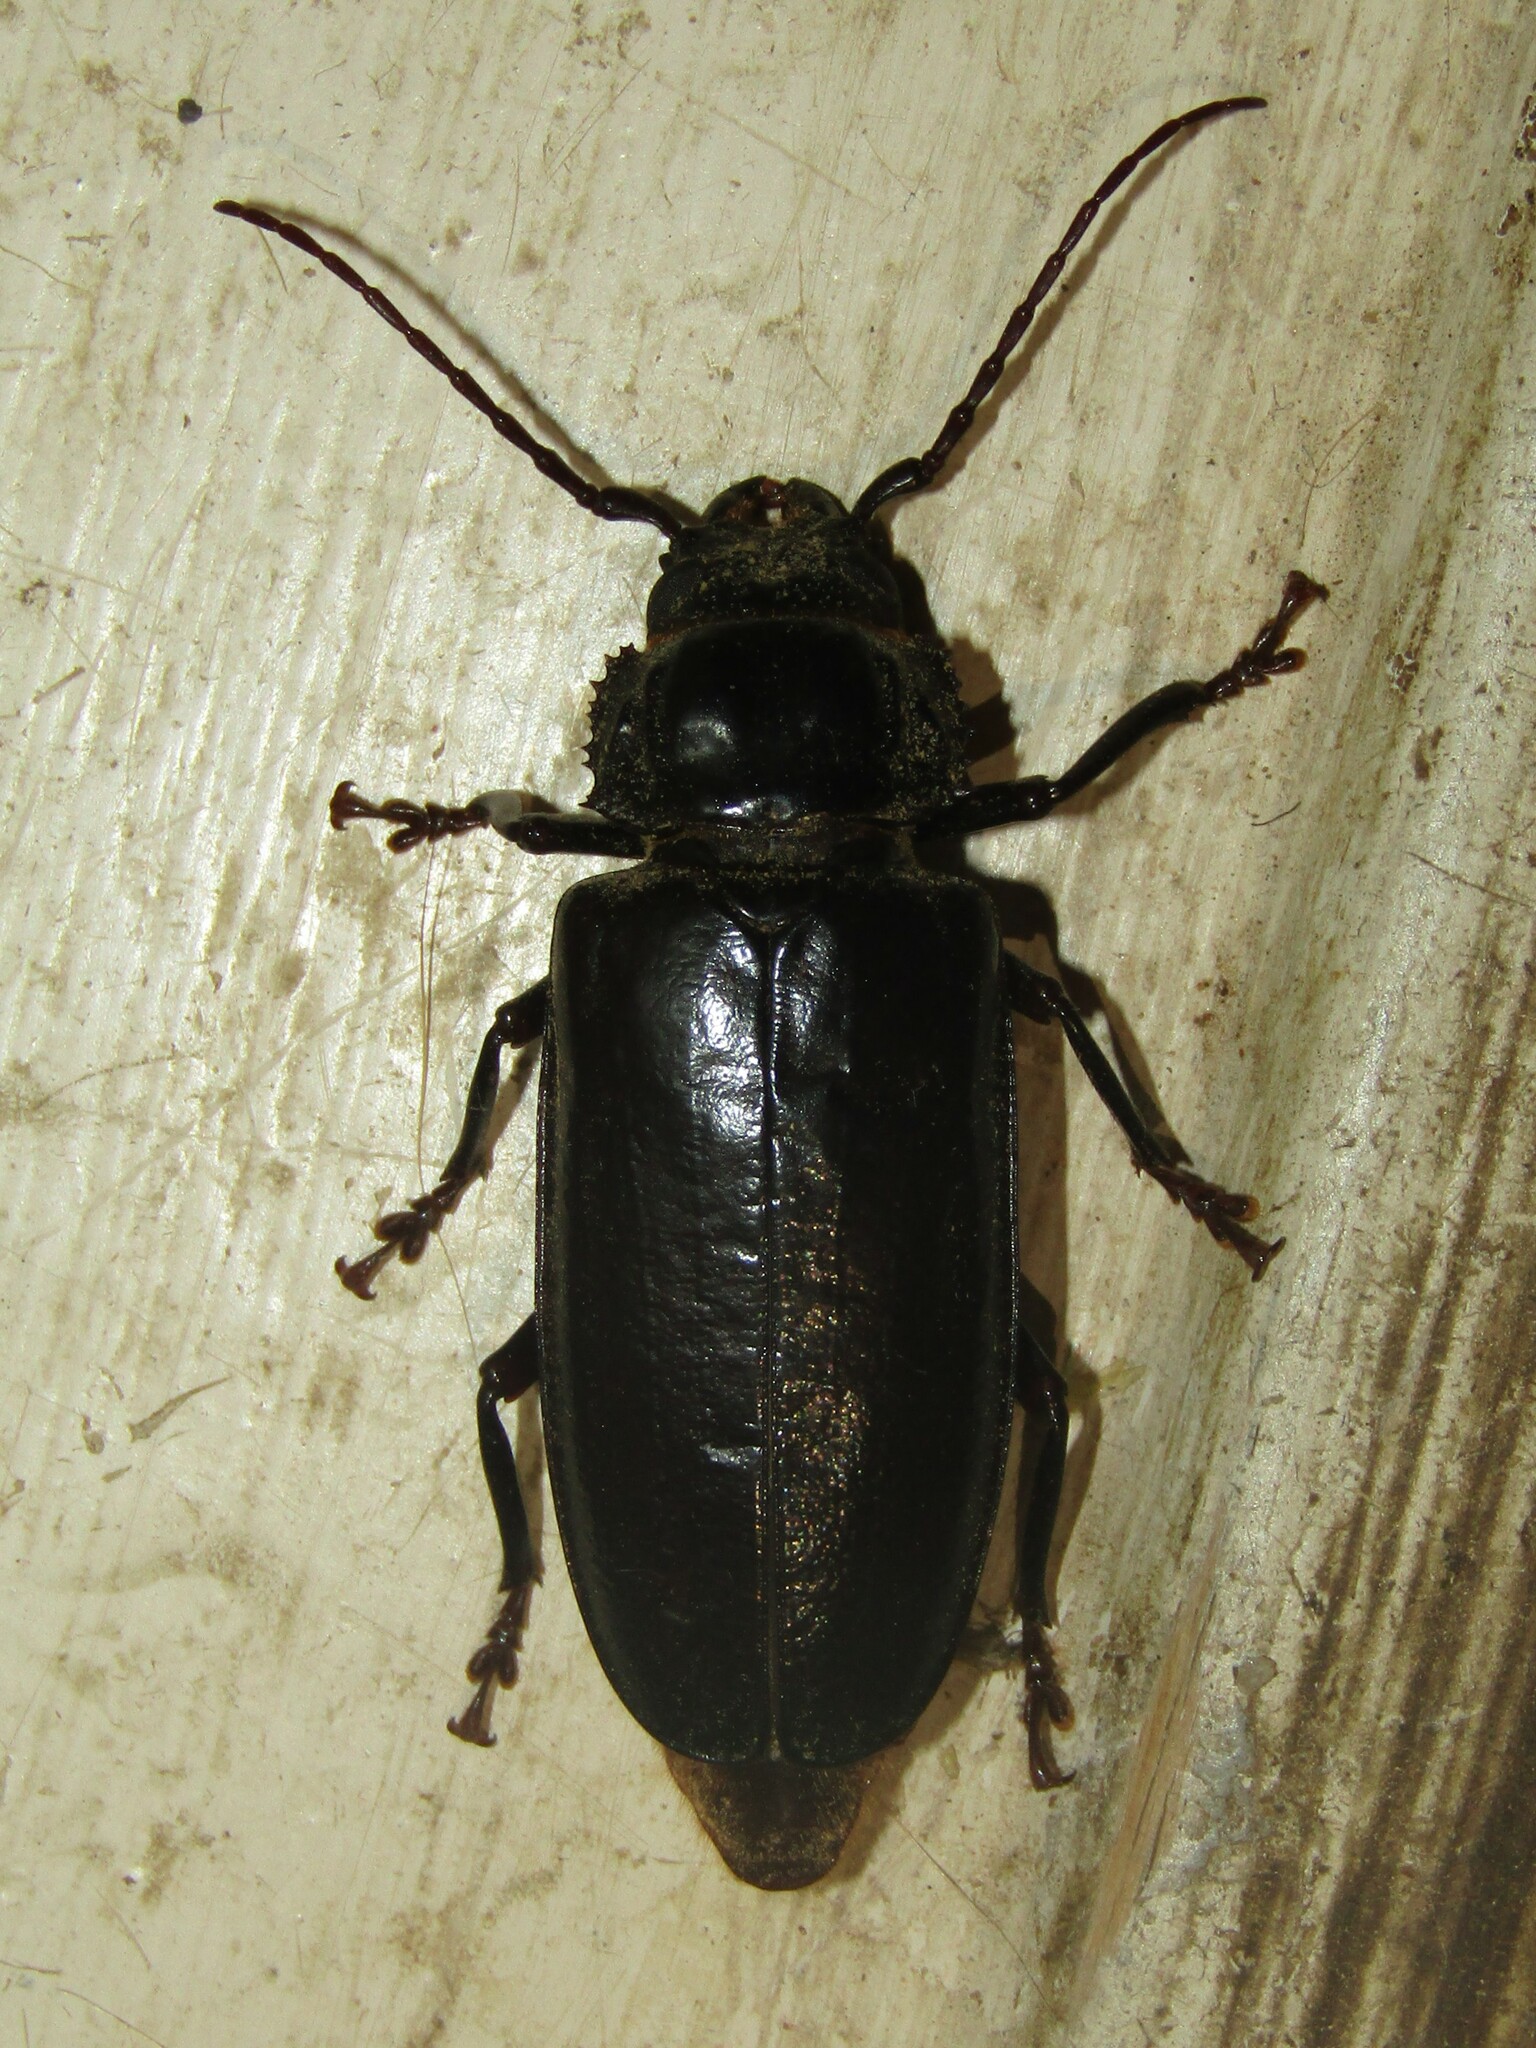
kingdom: Animalia
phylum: Arthropoda
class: Insecta
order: Coleoptera
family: Cerambycidae
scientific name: Cerambycidae
